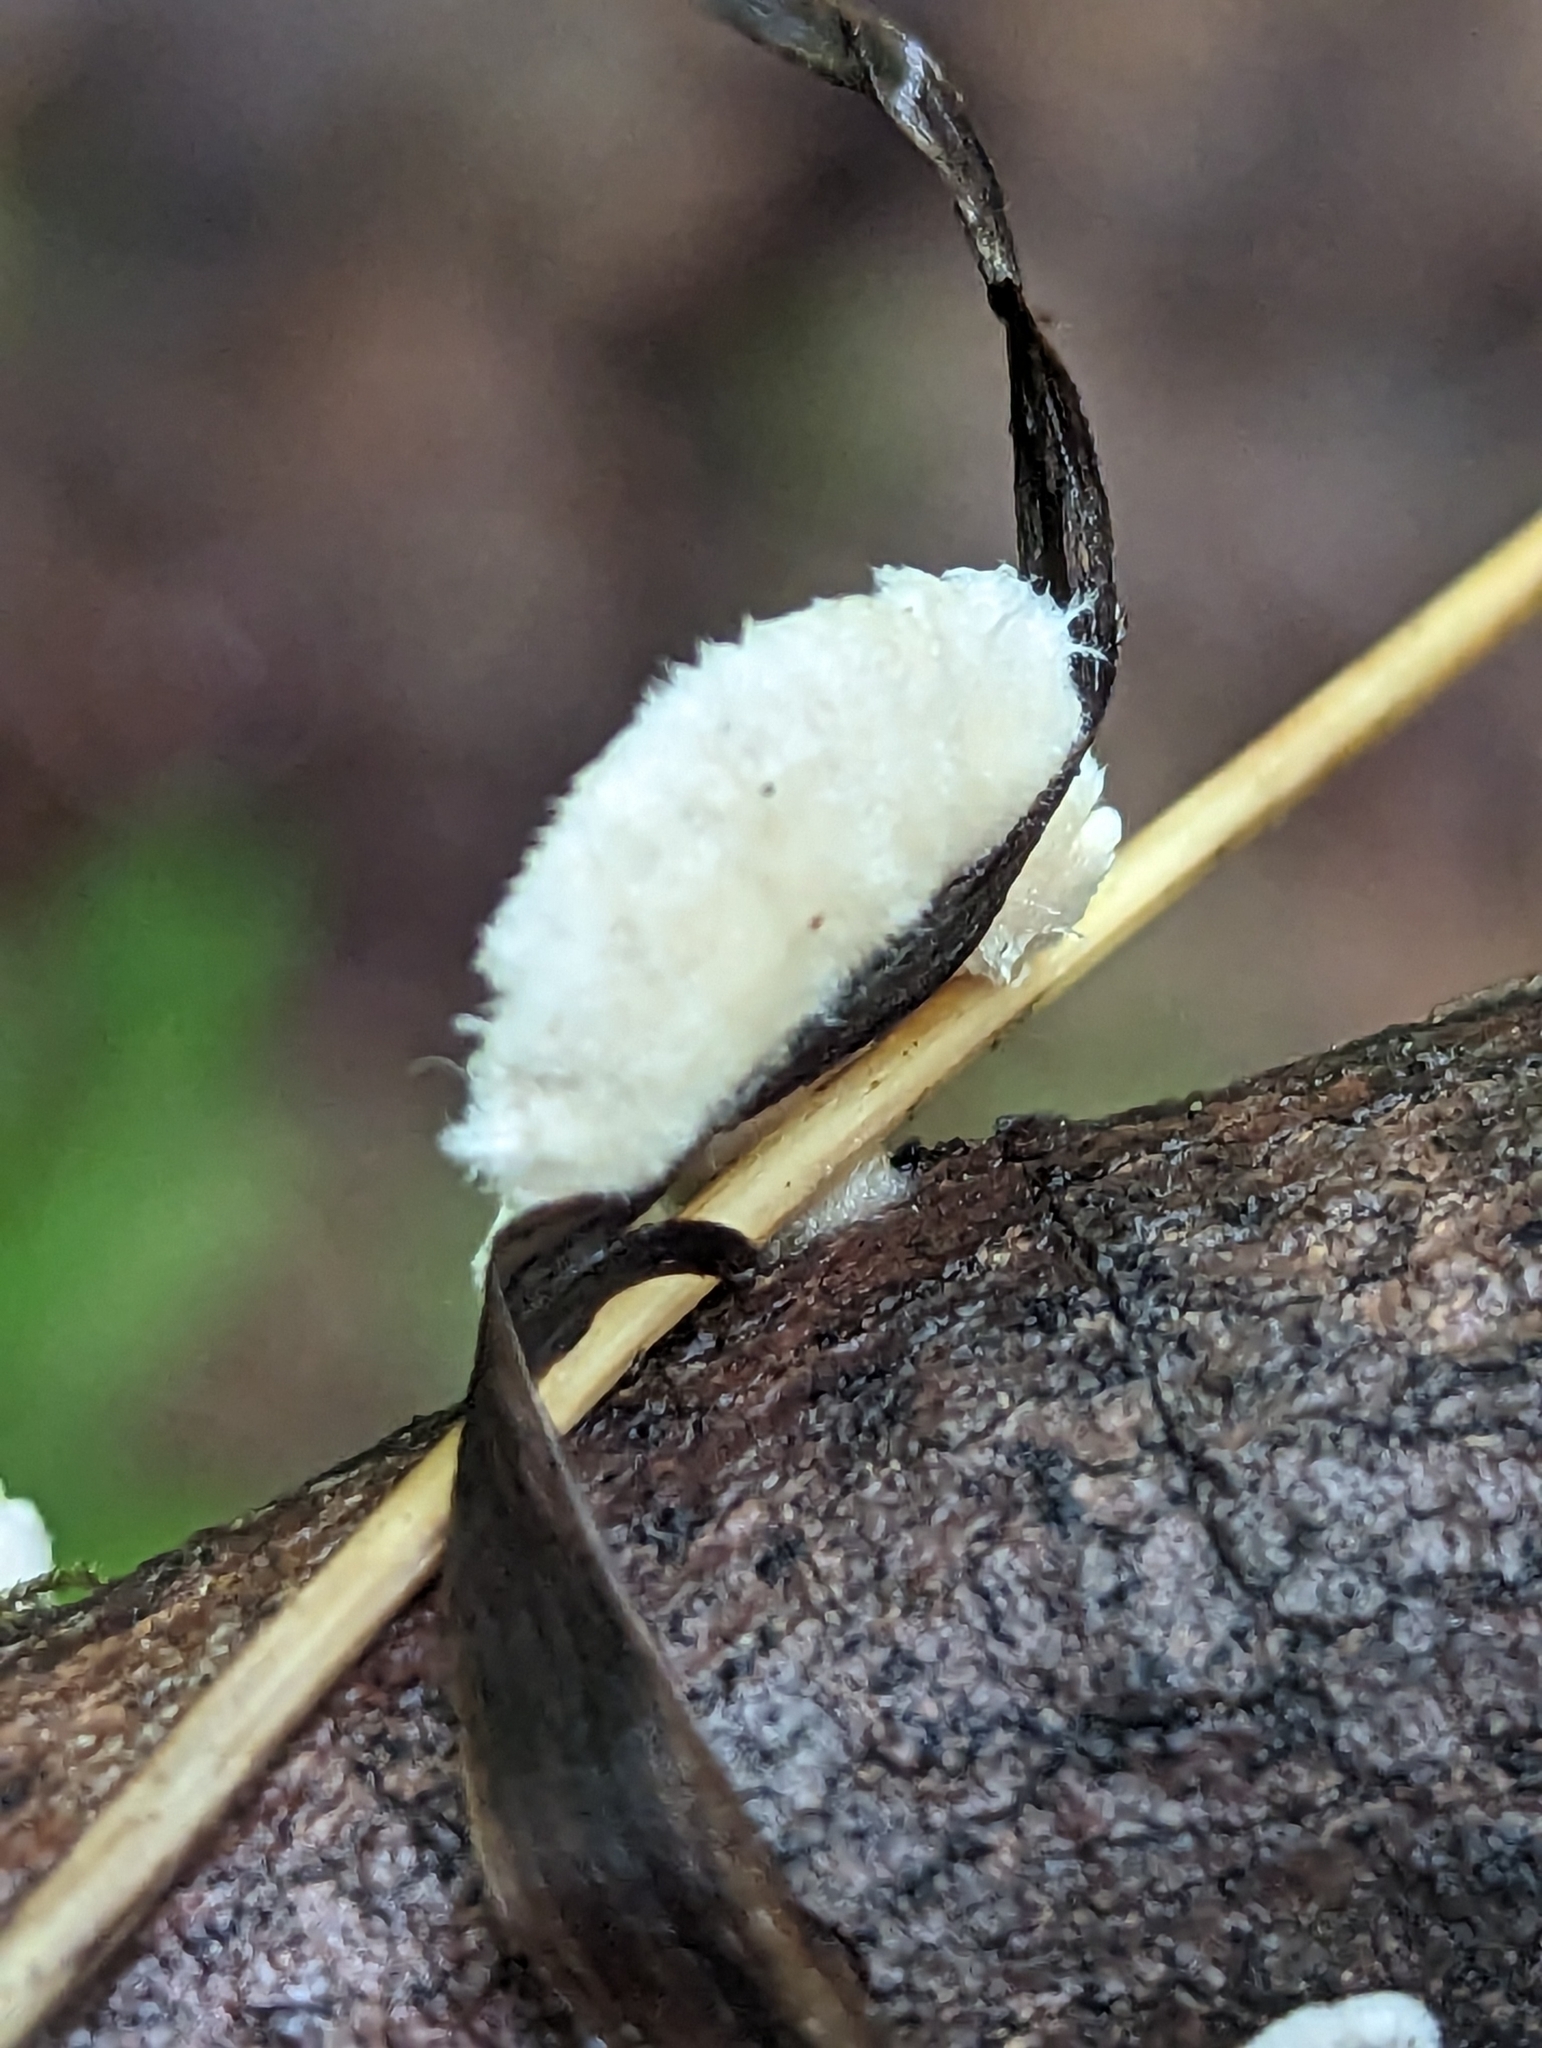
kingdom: Fungi
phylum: Basidiomycota
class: Agaricomycetes
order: Agaricales
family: Schizophyllaceae
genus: Schizophyllum
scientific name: Schizophyllum commune
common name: Common porecrust
